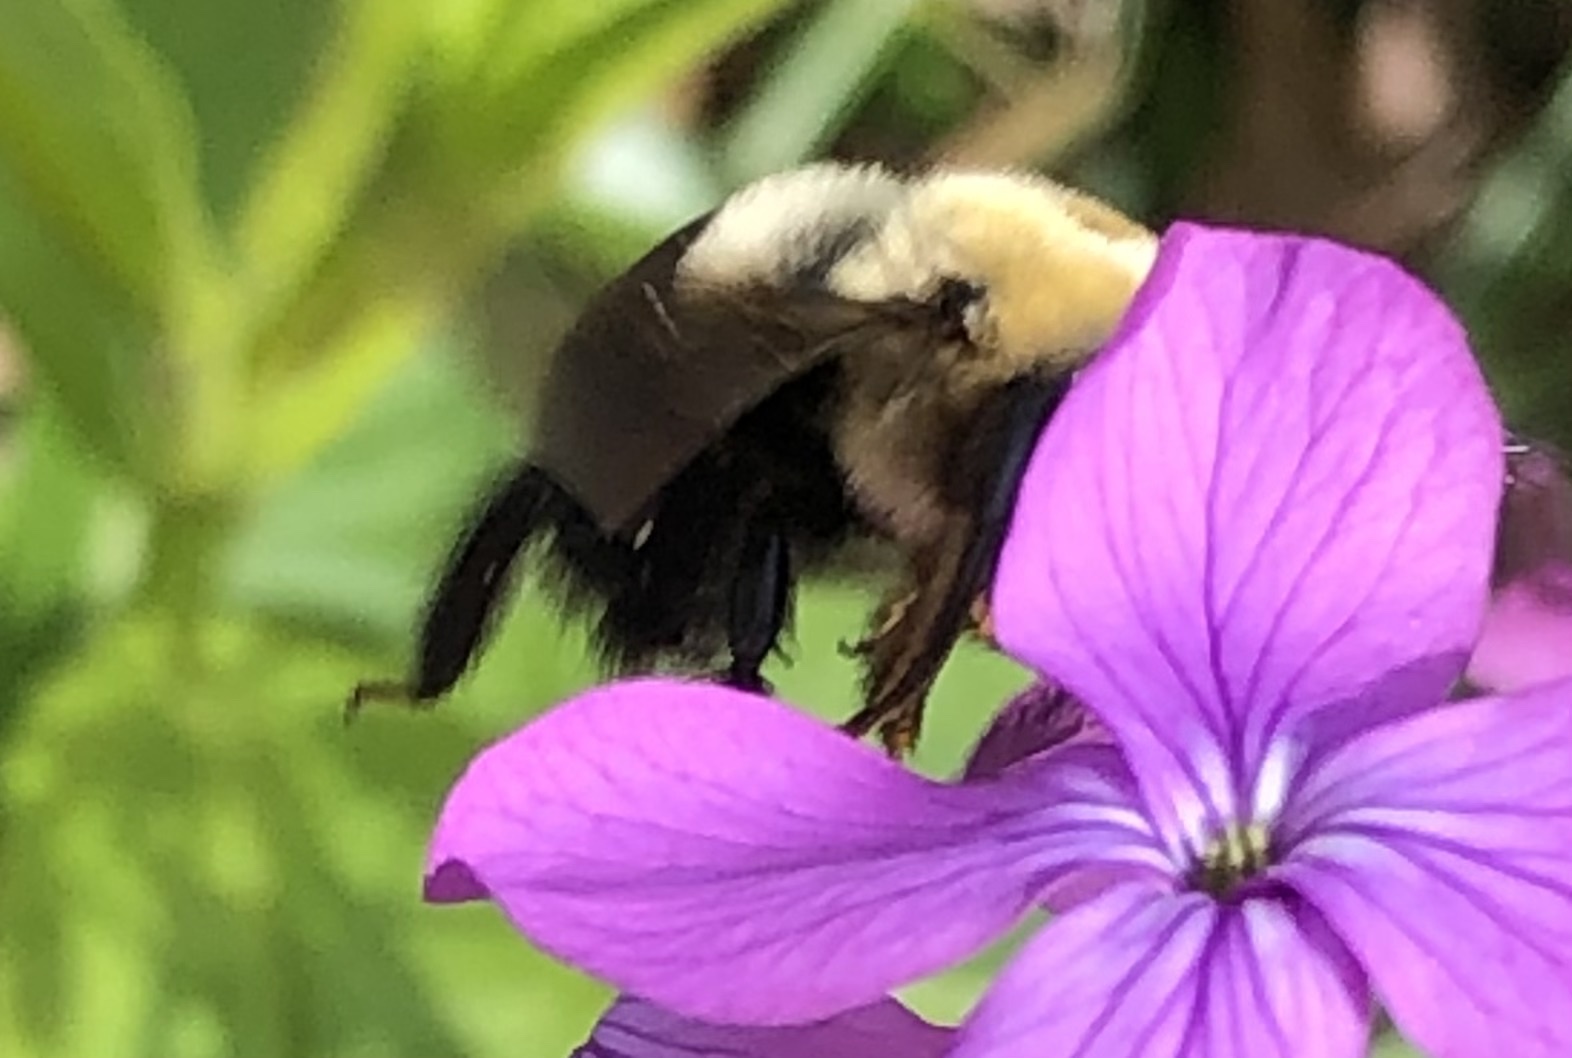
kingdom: Animalia
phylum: Arthropoda
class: Insecta
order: Hymenoptera
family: Apidae
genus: Xylocopa
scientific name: Xylocopa virginica
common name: Carpenter bee
